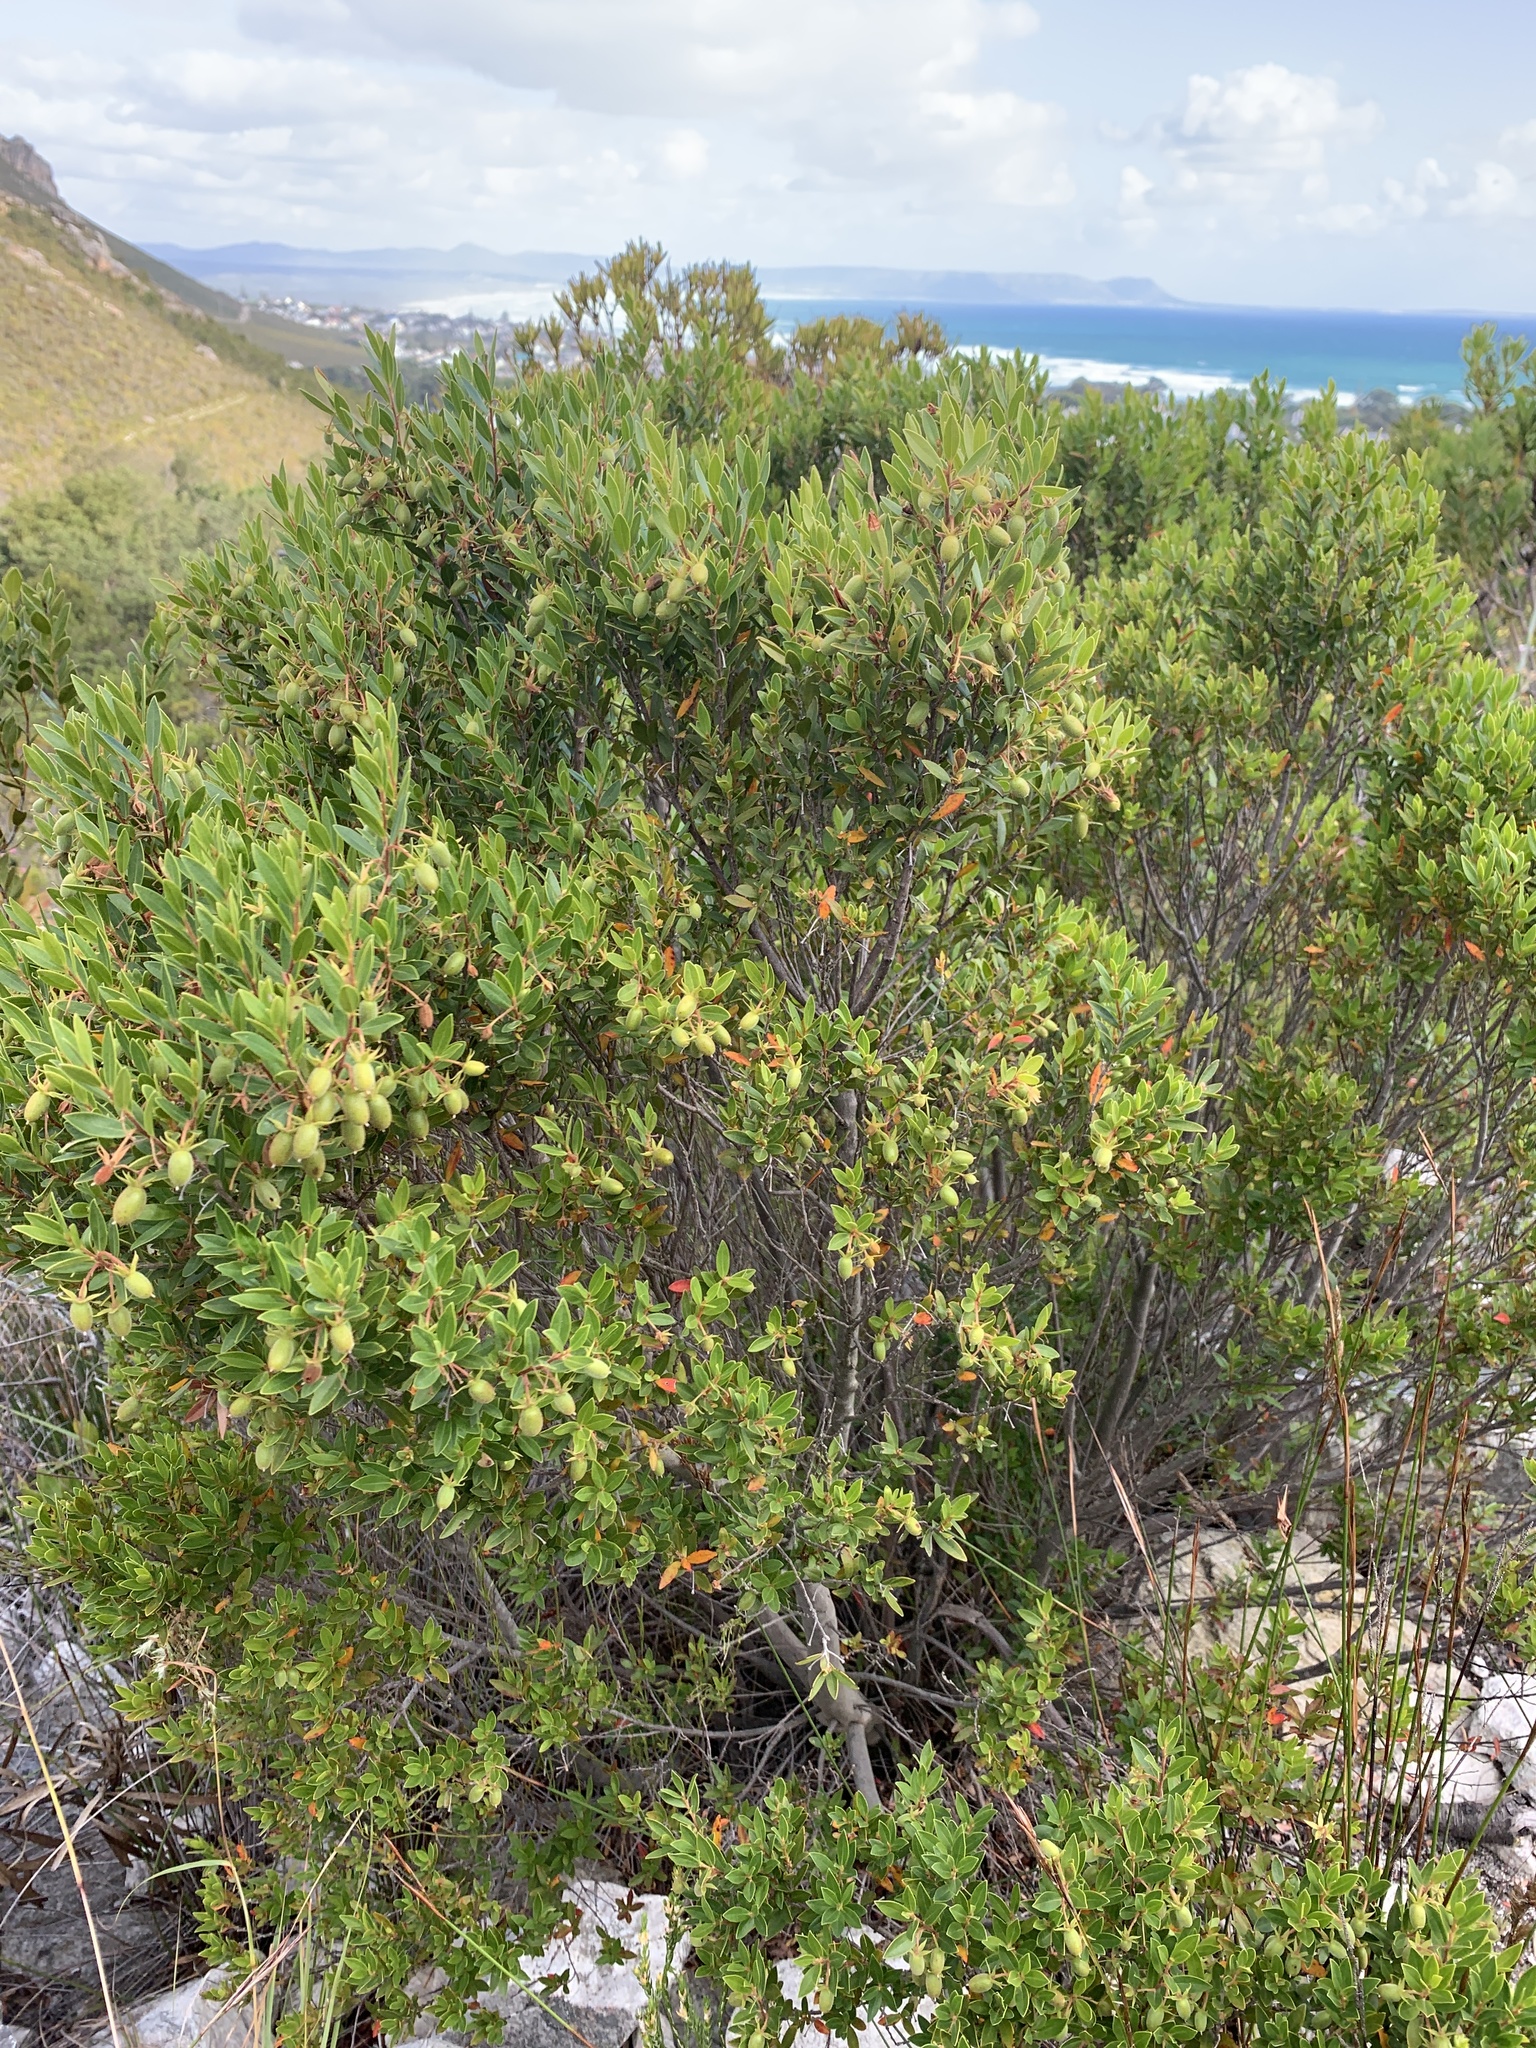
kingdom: Plantae
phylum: Tracheophyta
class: Magnoliopsida
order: Ericales
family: Ebenaceae
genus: Diospyros
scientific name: Diospyros glabra
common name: Fynbos star apple
